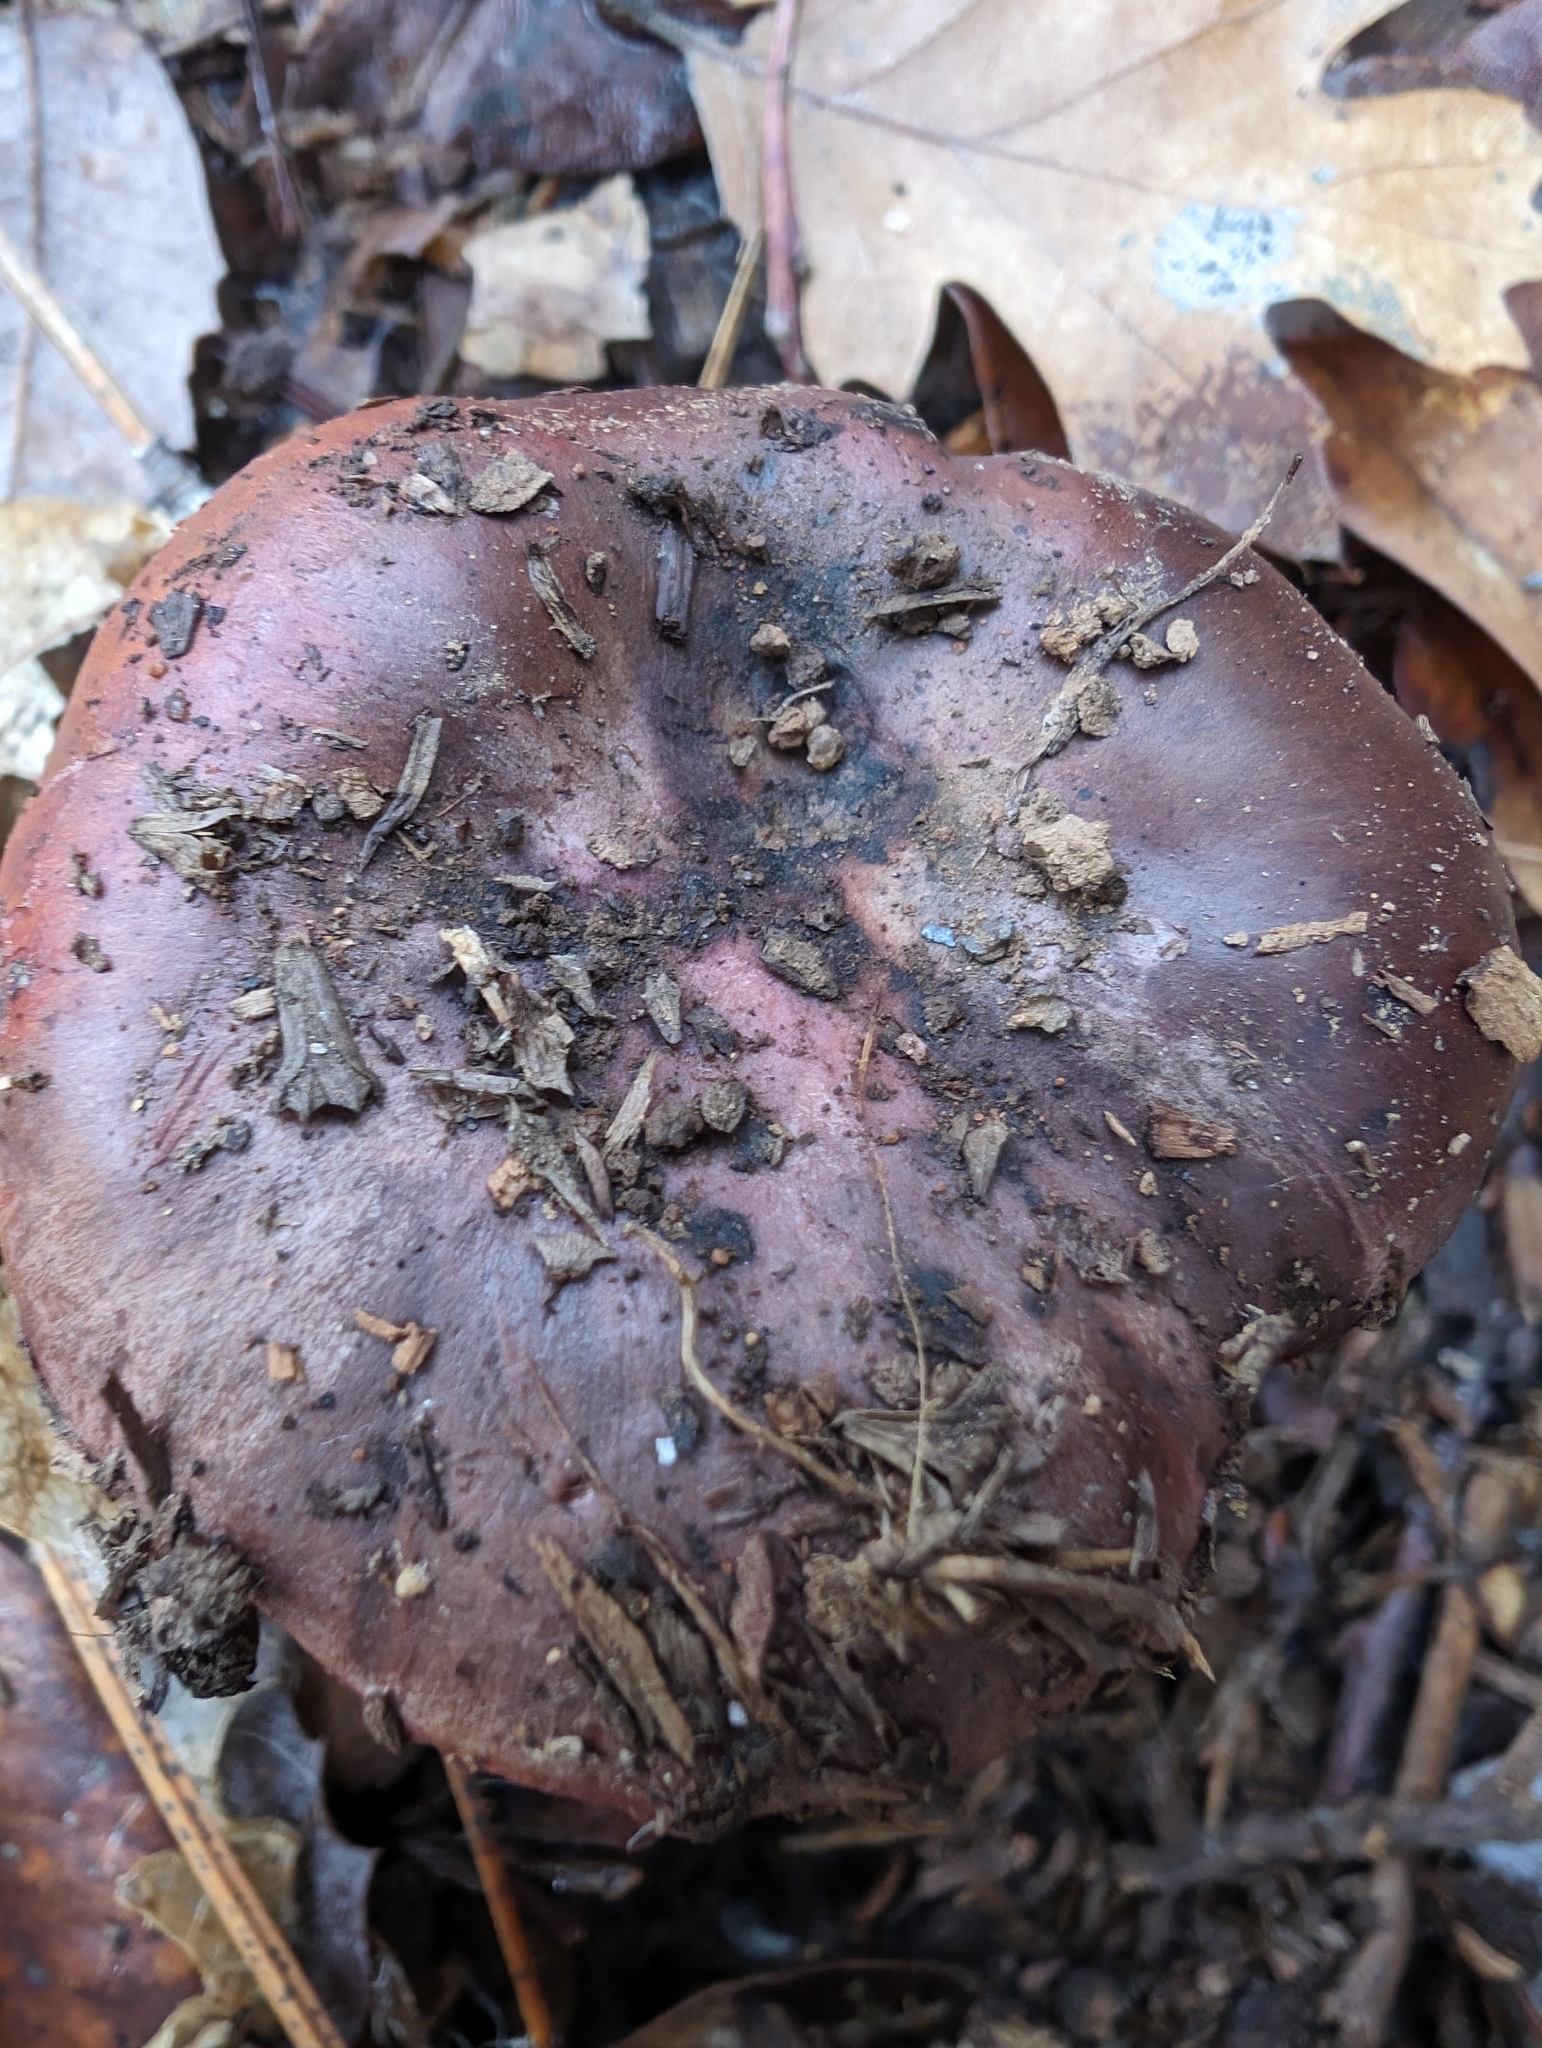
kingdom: Fungi
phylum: Basidiomycota
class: Agaricomycetes
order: Boletales
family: Gomphidiaceae
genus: Chroogomphus
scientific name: Chroogomphus vinicolor
